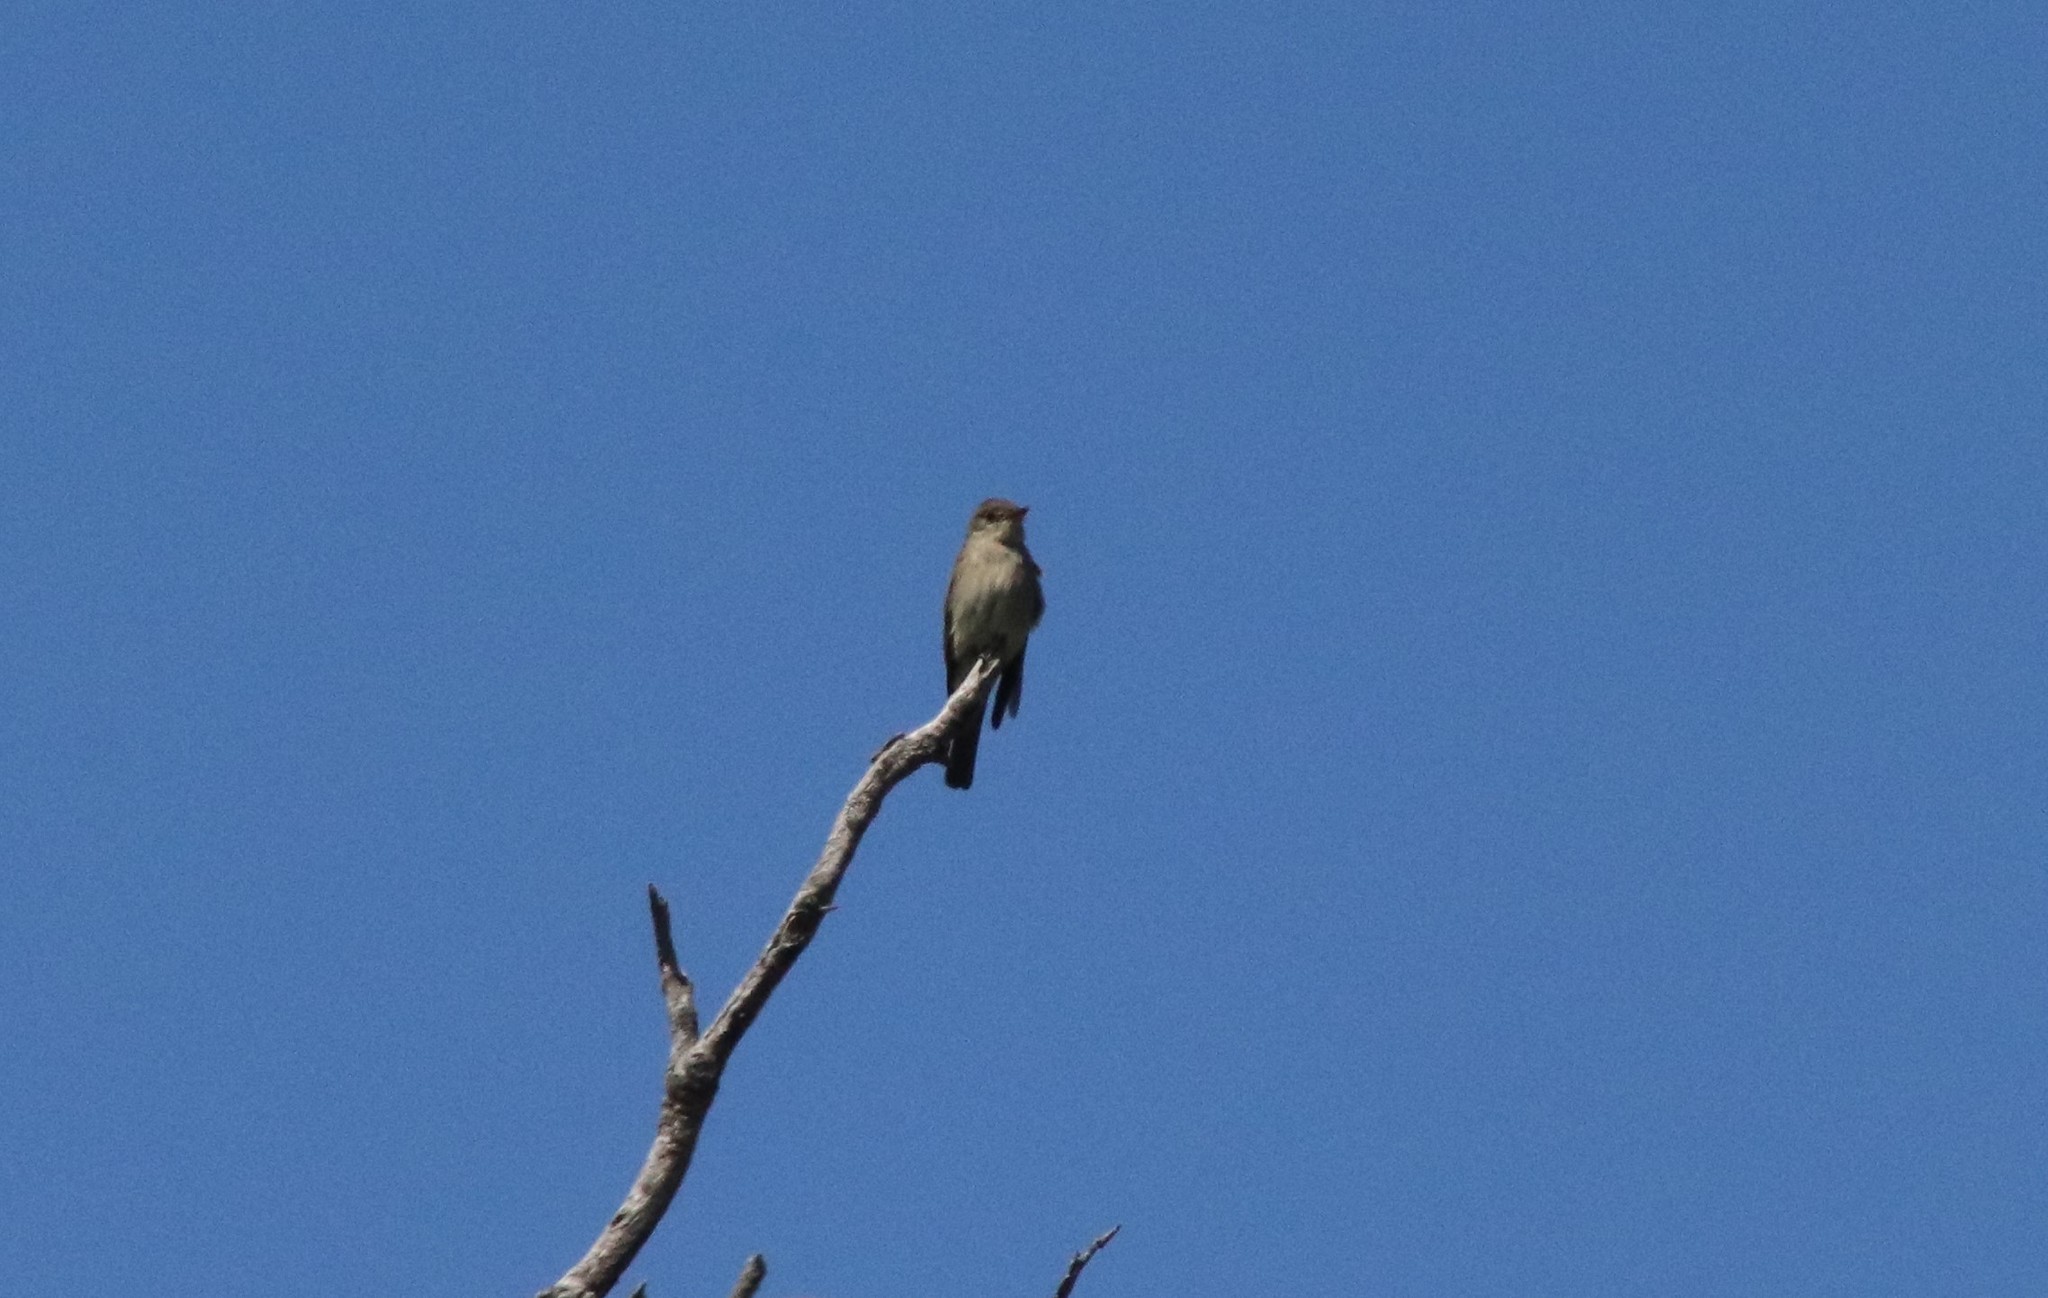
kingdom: Animalia
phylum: Chordata
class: Aves
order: Passeriformes
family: Tyrannidae
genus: Contopus
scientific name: Contopus sordidulus
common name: Western wood-pewee
